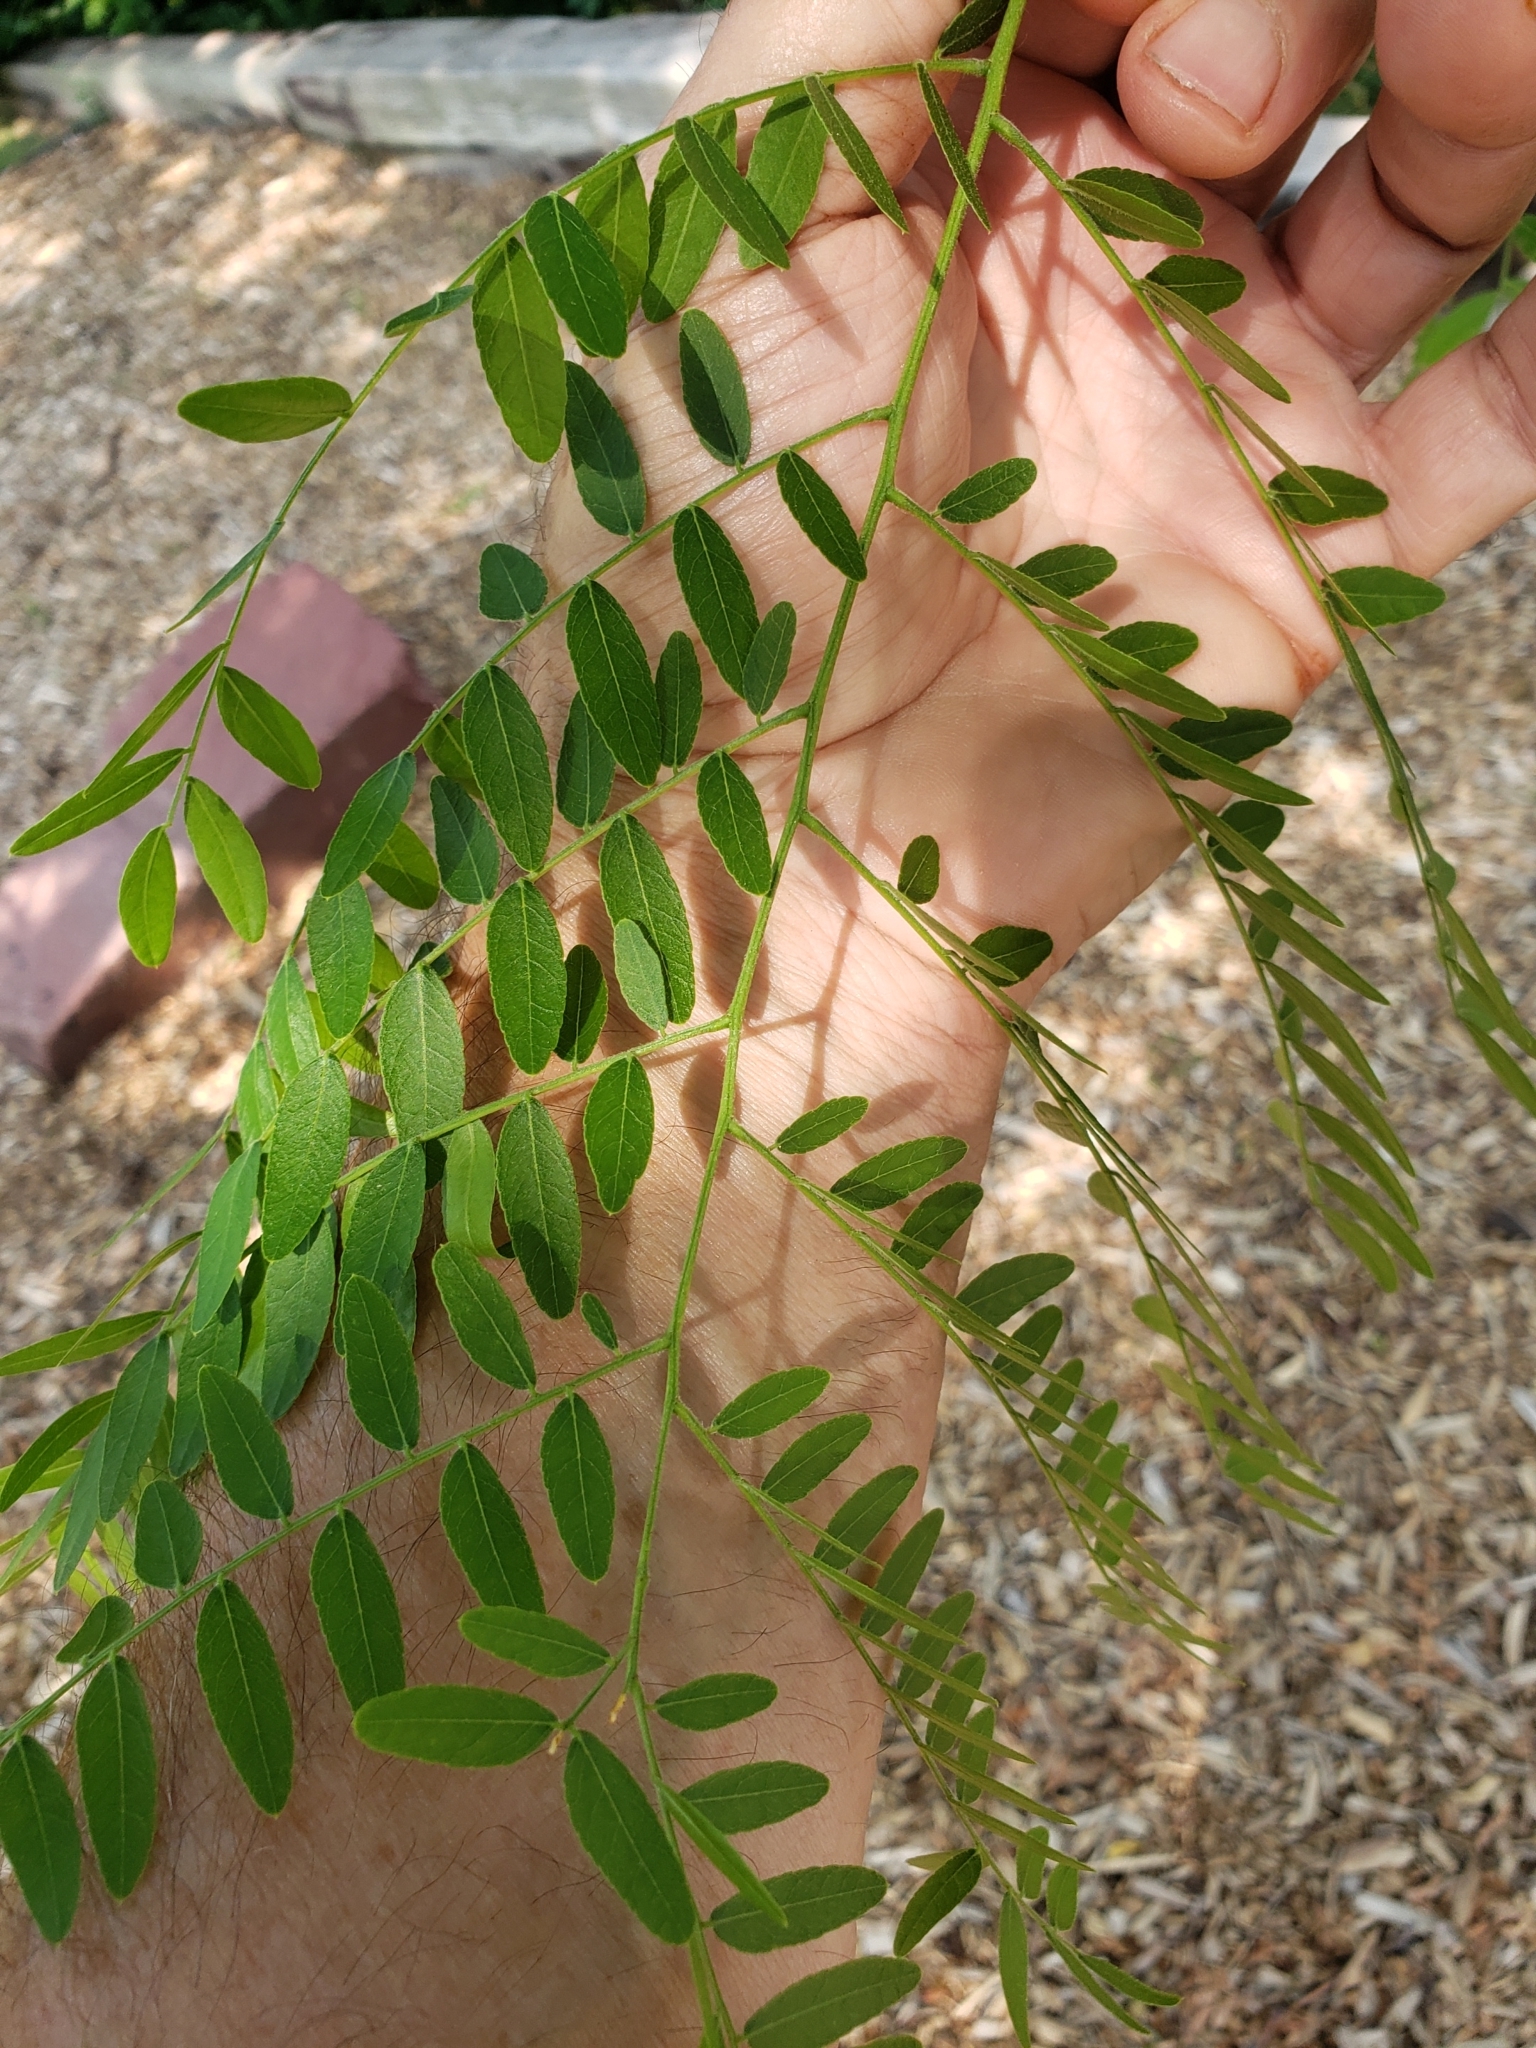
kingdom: Plantae
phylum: Tracheophyta
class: Magnoliopsida
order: Fabales
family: Fabaceae
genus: Gleditsia
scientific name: Gleditsia triacanthos
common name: Common honeylocust
